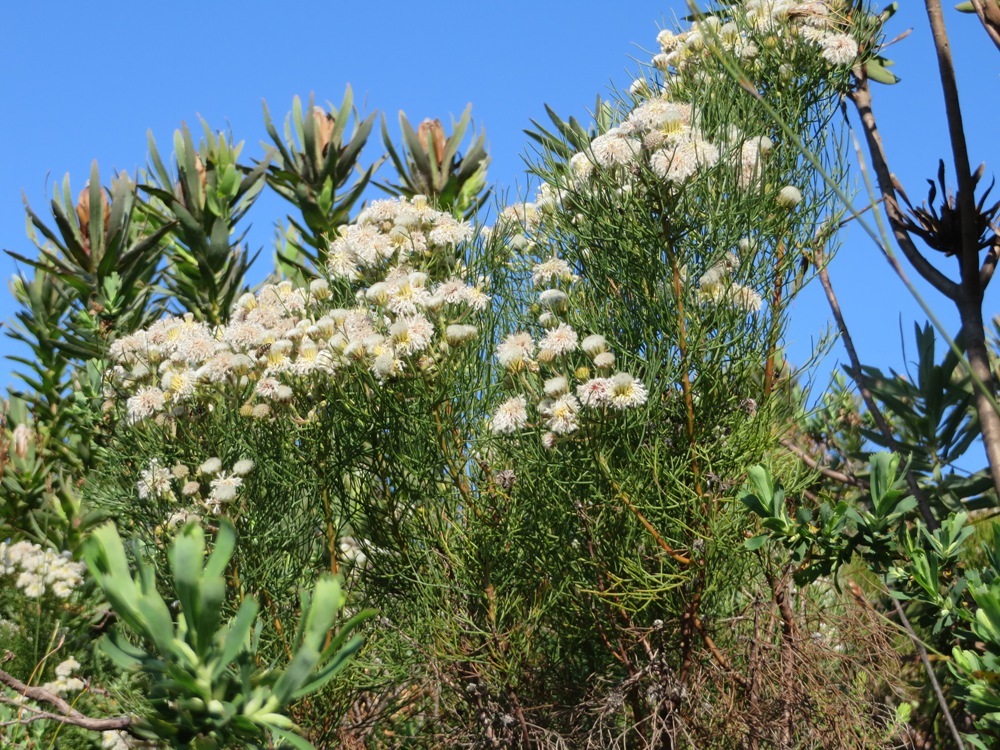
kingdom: Plantae
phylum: Tracheophyta
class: Magnoliopsida
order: Proteales
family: Proteaceae
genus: Serruria
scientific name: Serruria kraussii
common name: Snowball spiderhead
